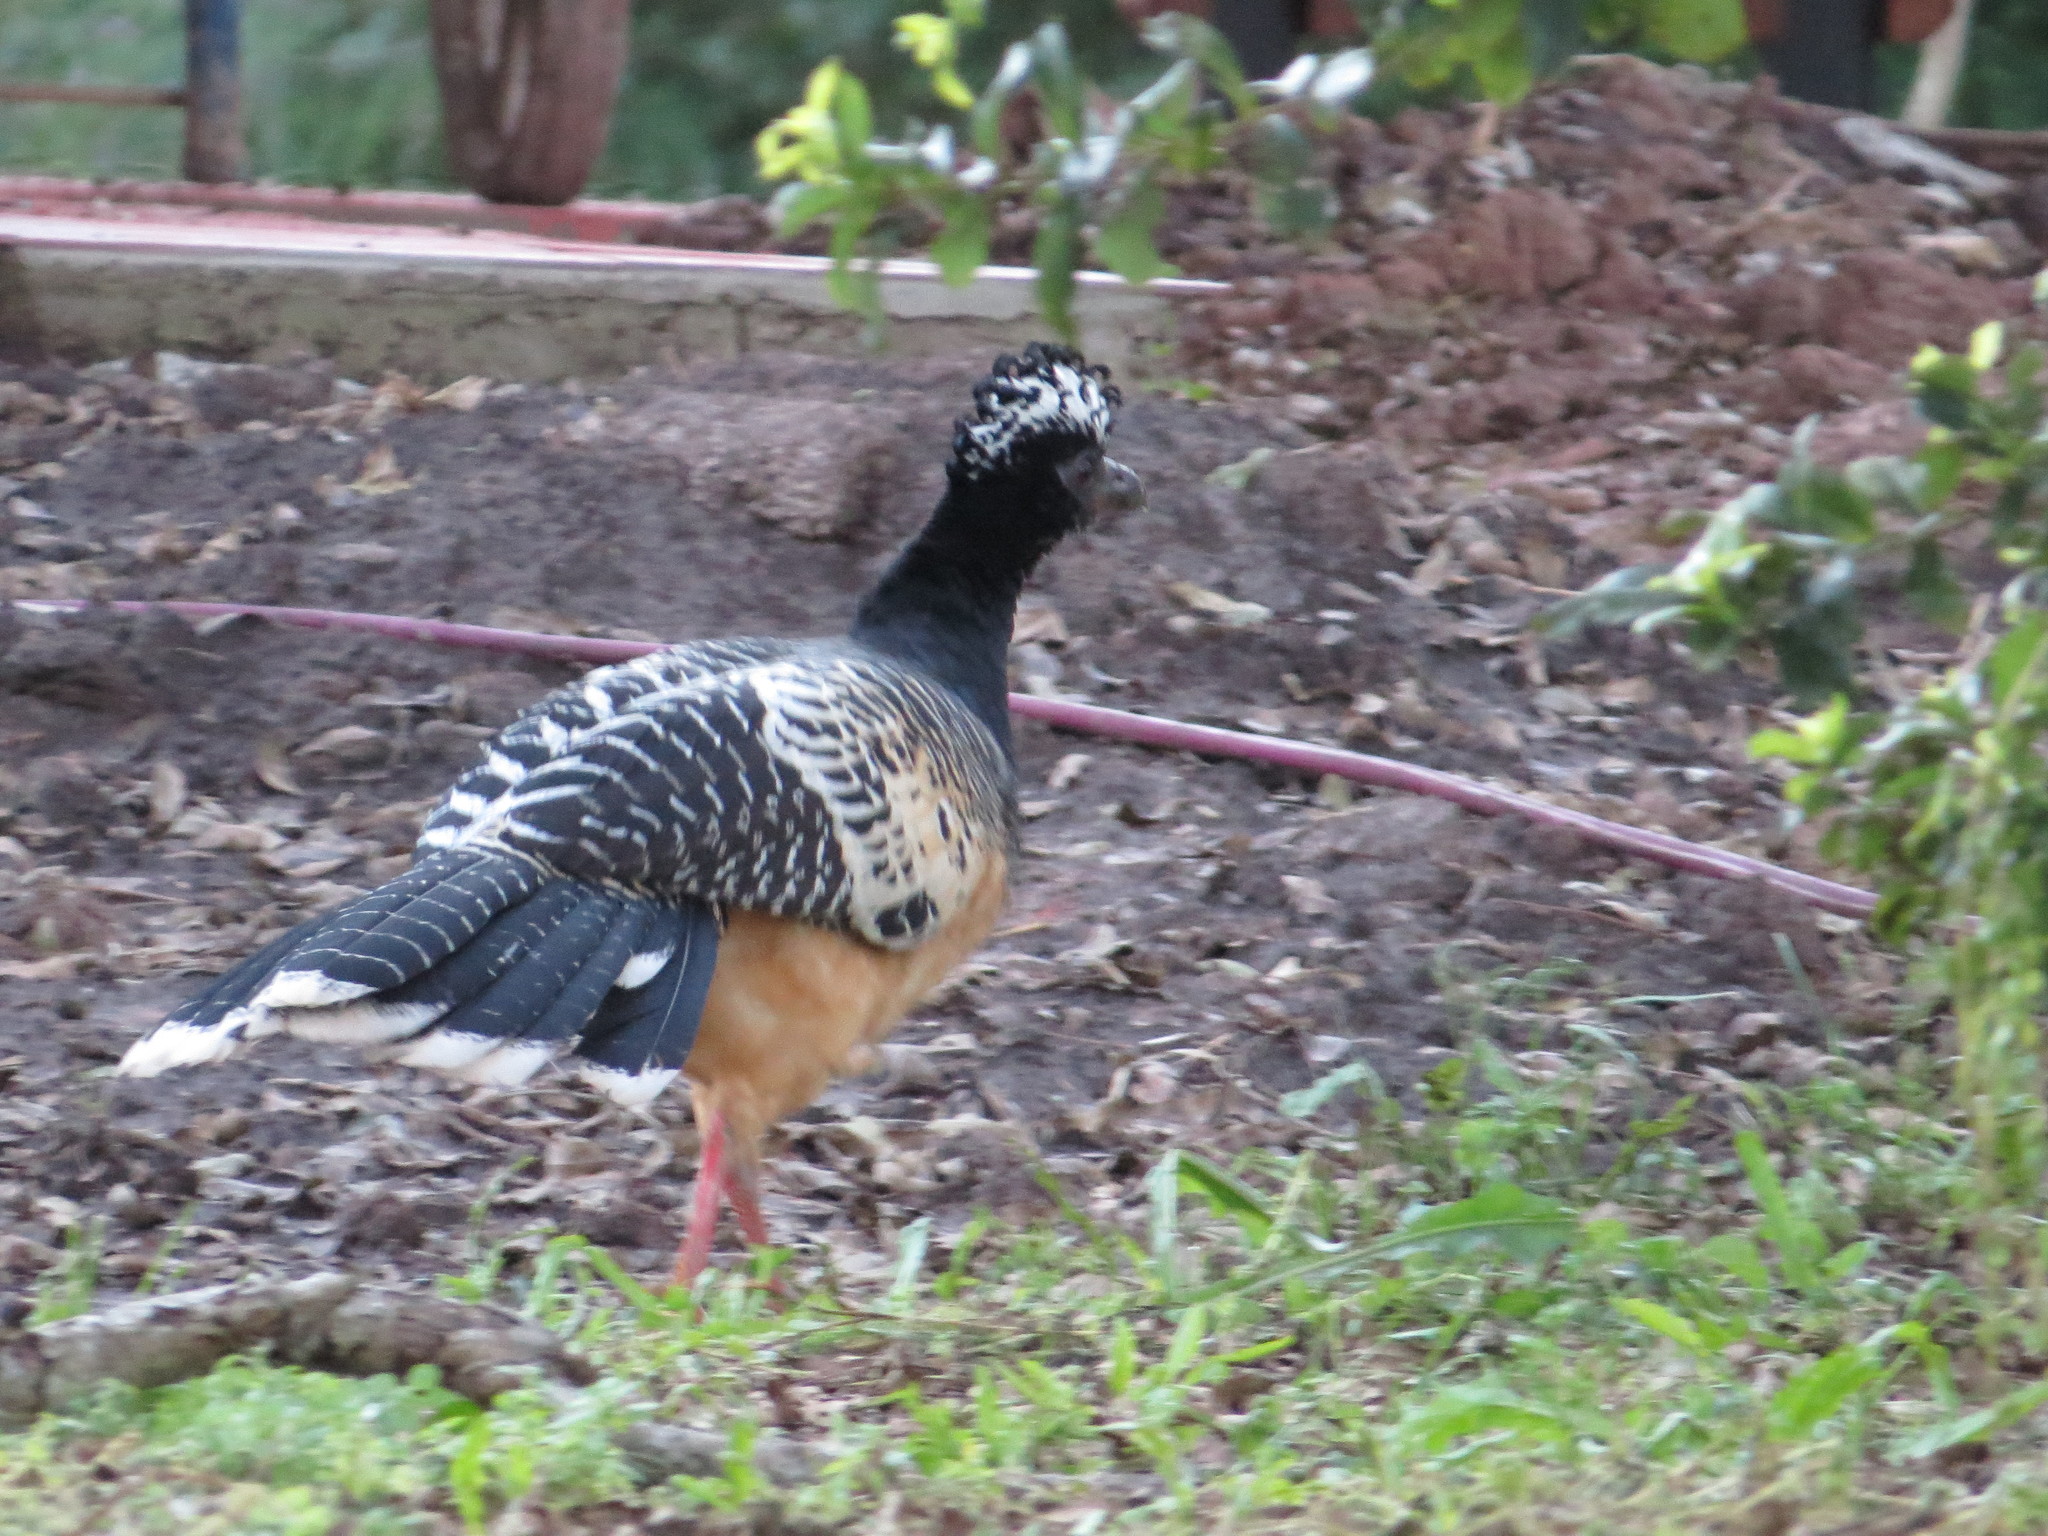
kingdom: Animalia
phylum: Chordata
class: Aves
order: Galliformes
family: Cracidae
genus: Crax
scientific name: Crax fasciolata
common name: Bare-faced curassow
